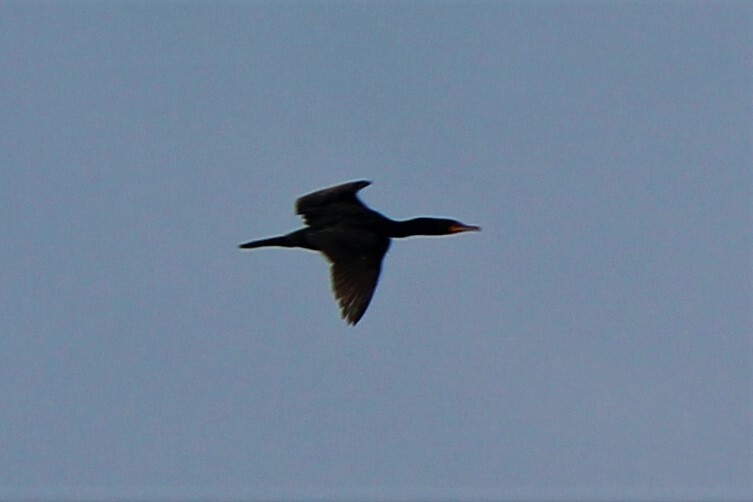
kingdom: Animalia
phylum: Chordata
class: Aves
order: Suliformes
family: Phalacrocoracidae
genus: Phalacrocorax
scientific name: Phalacrocorax auritus
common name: Double-crested cormorant
